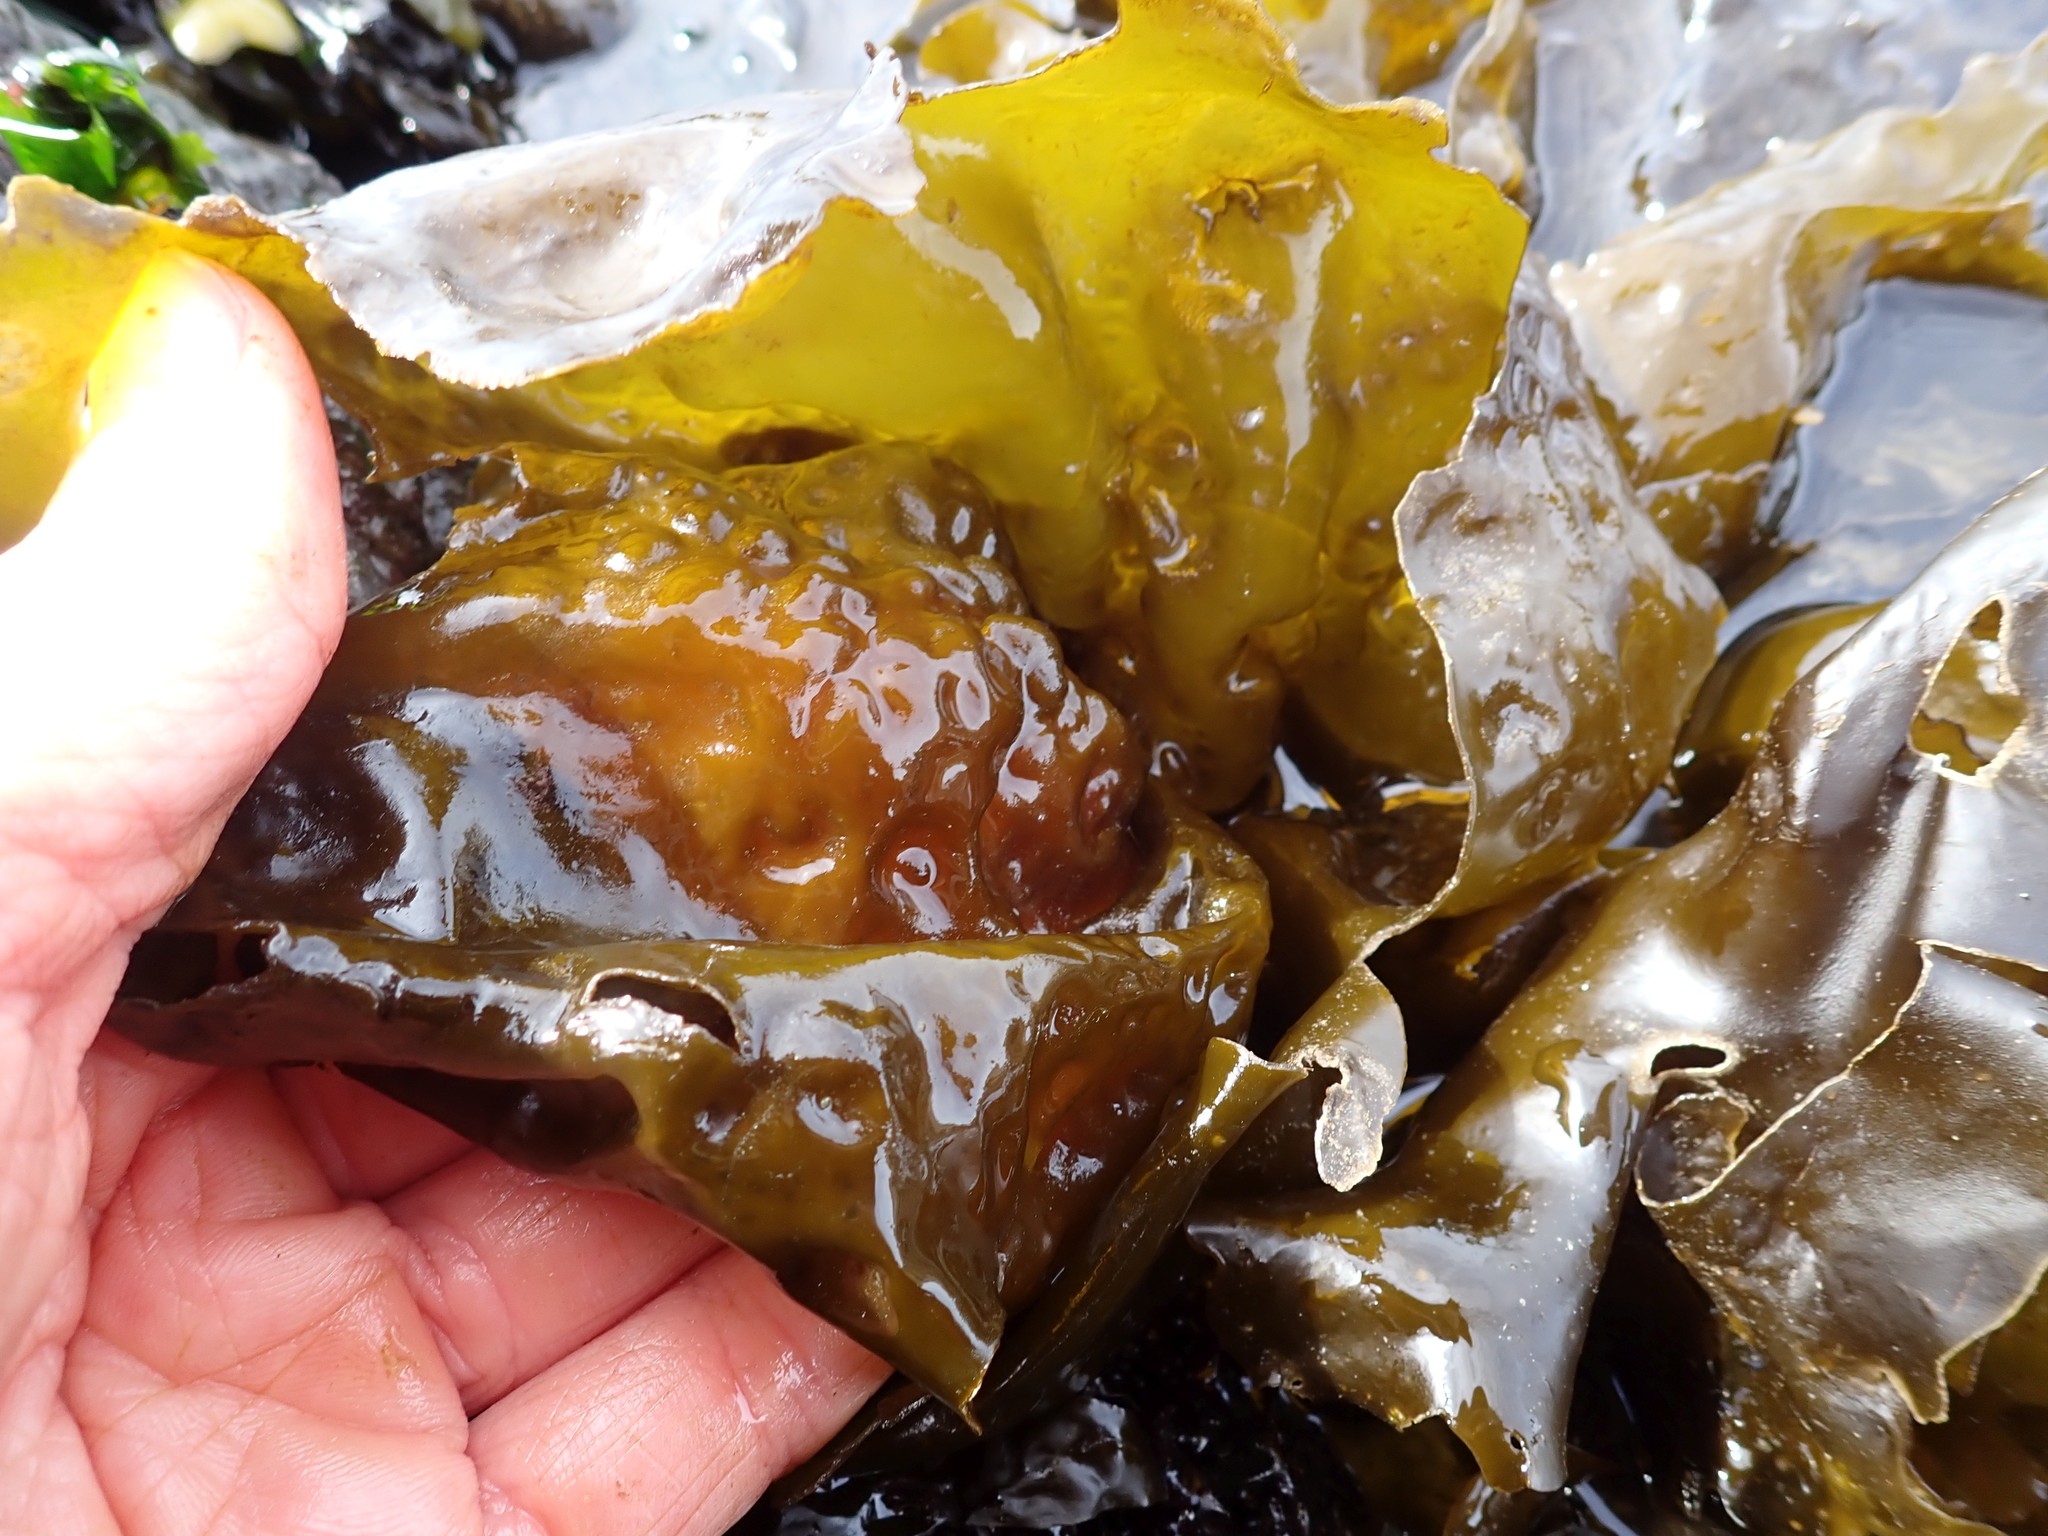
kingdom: Chromista
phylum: Ochrophyta
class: Phaeophyceae
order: Laminariales
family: Laminariaceae
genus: Hedophyllum
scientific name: Hedophyllum sessile
